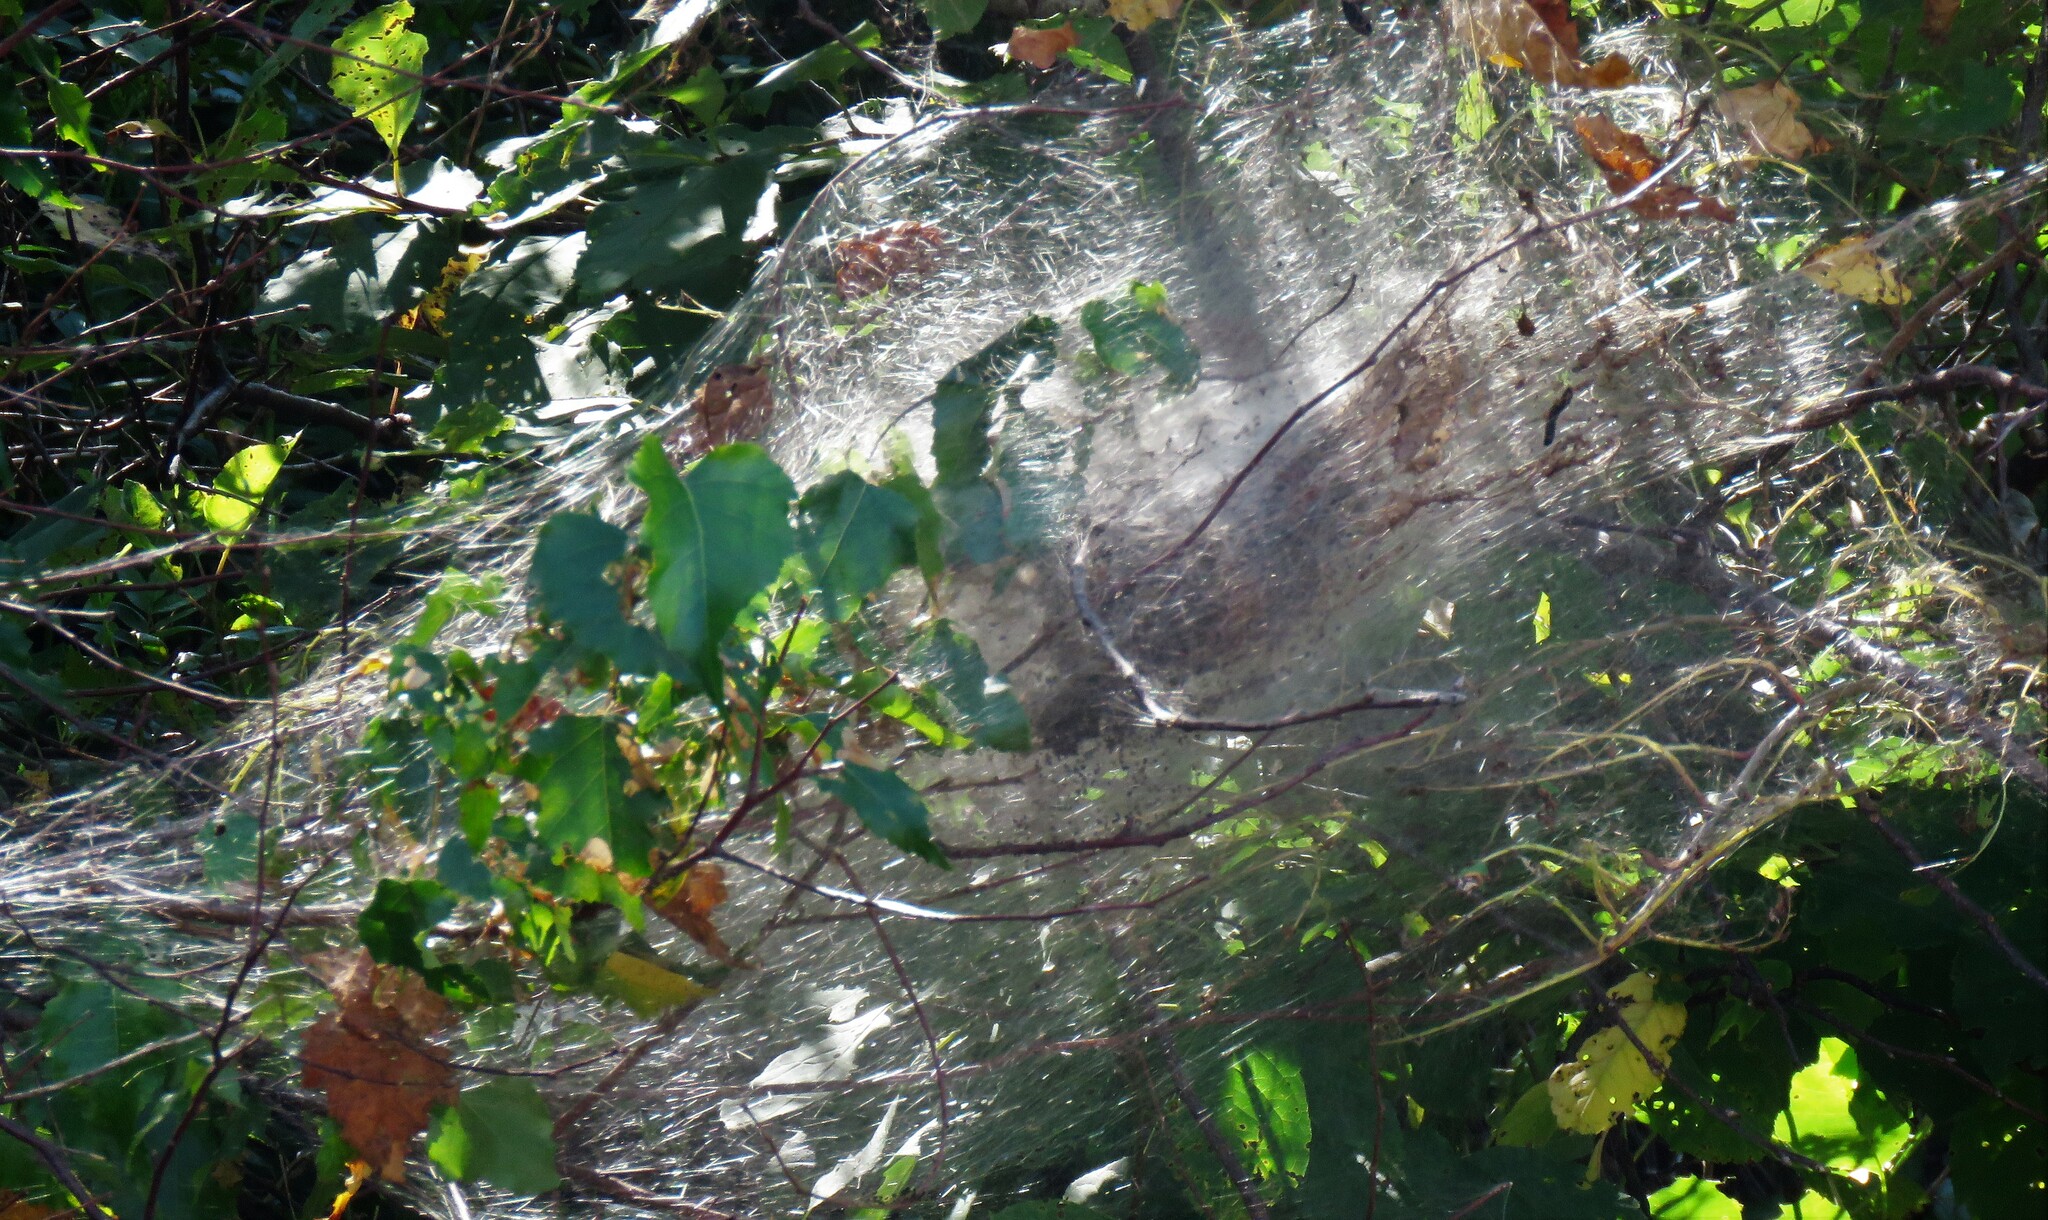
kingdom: Animalia
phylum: Arthropoda
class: Insecta
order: Lepidoptera
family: Erebidae
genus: Hyphantria
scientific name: Hyphantria cunea
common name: American white moth
